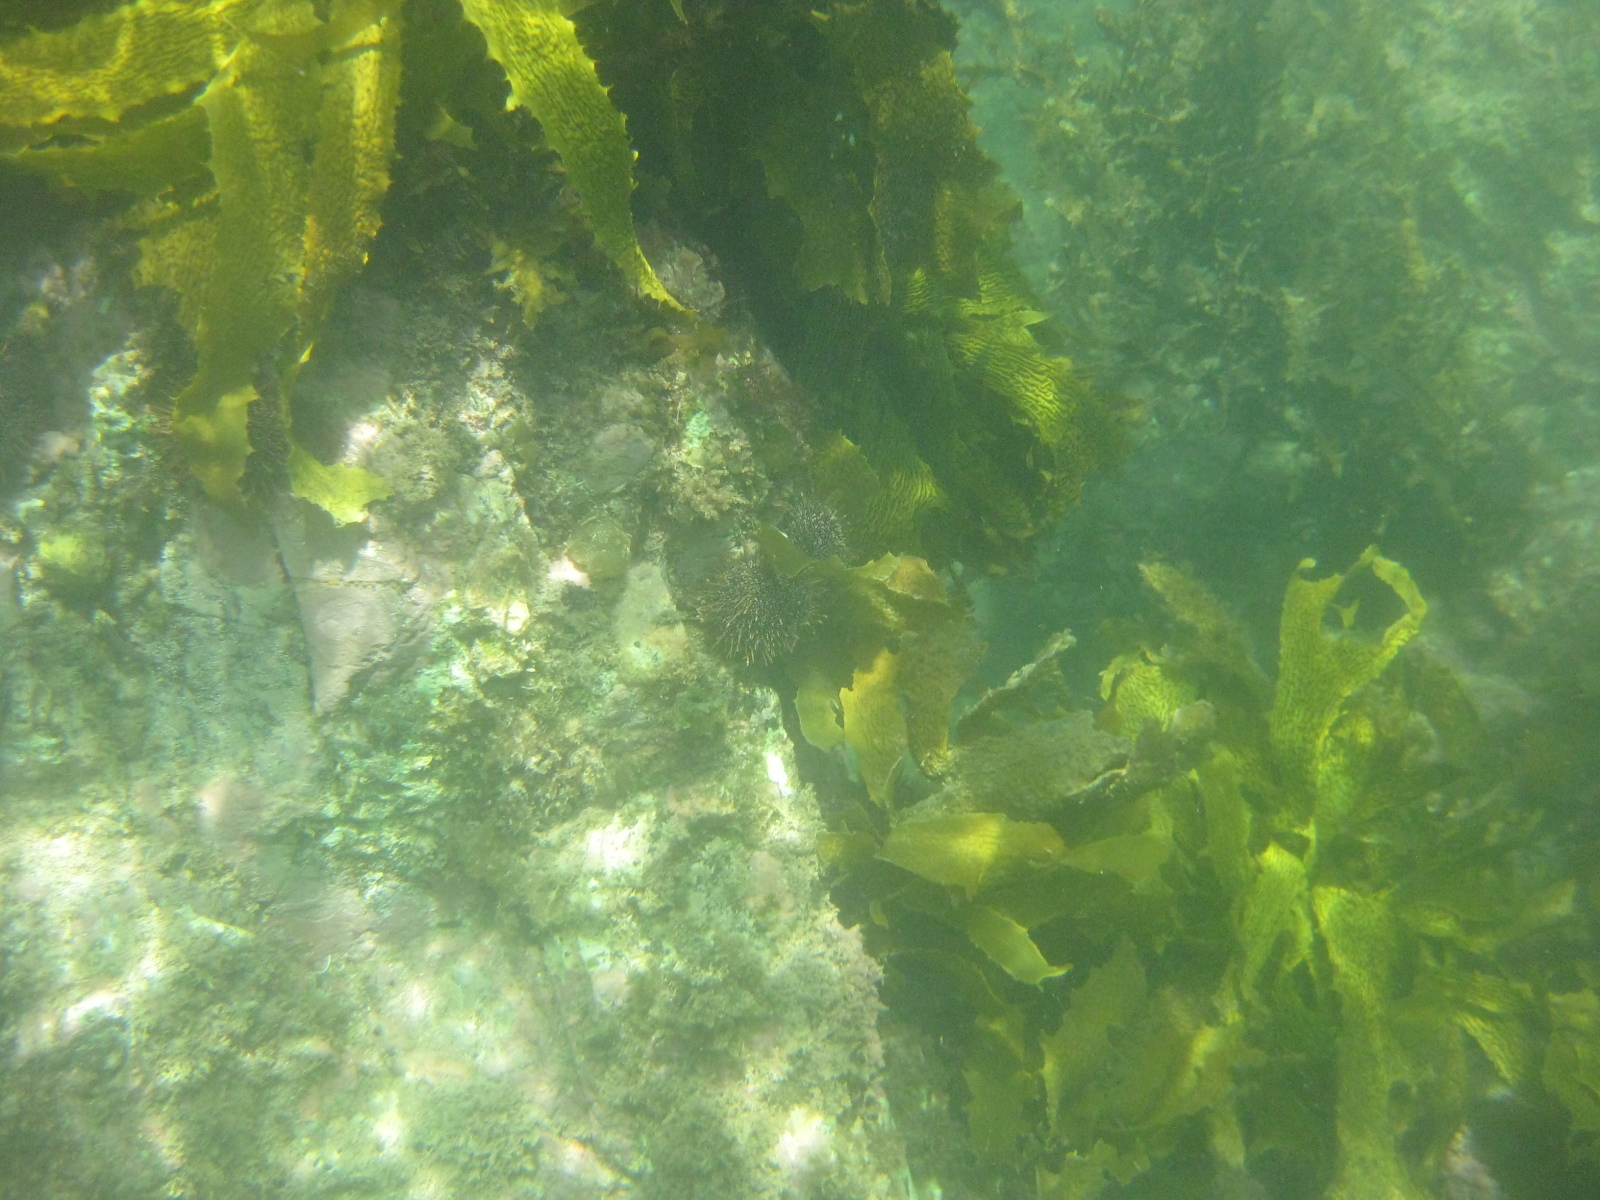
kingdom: Chromista
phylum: Ochrophyta
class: Phaeophyceae
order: Laminariales
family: Lessoniaceae
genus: Ecklonia
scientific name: Ecklonia radiata
